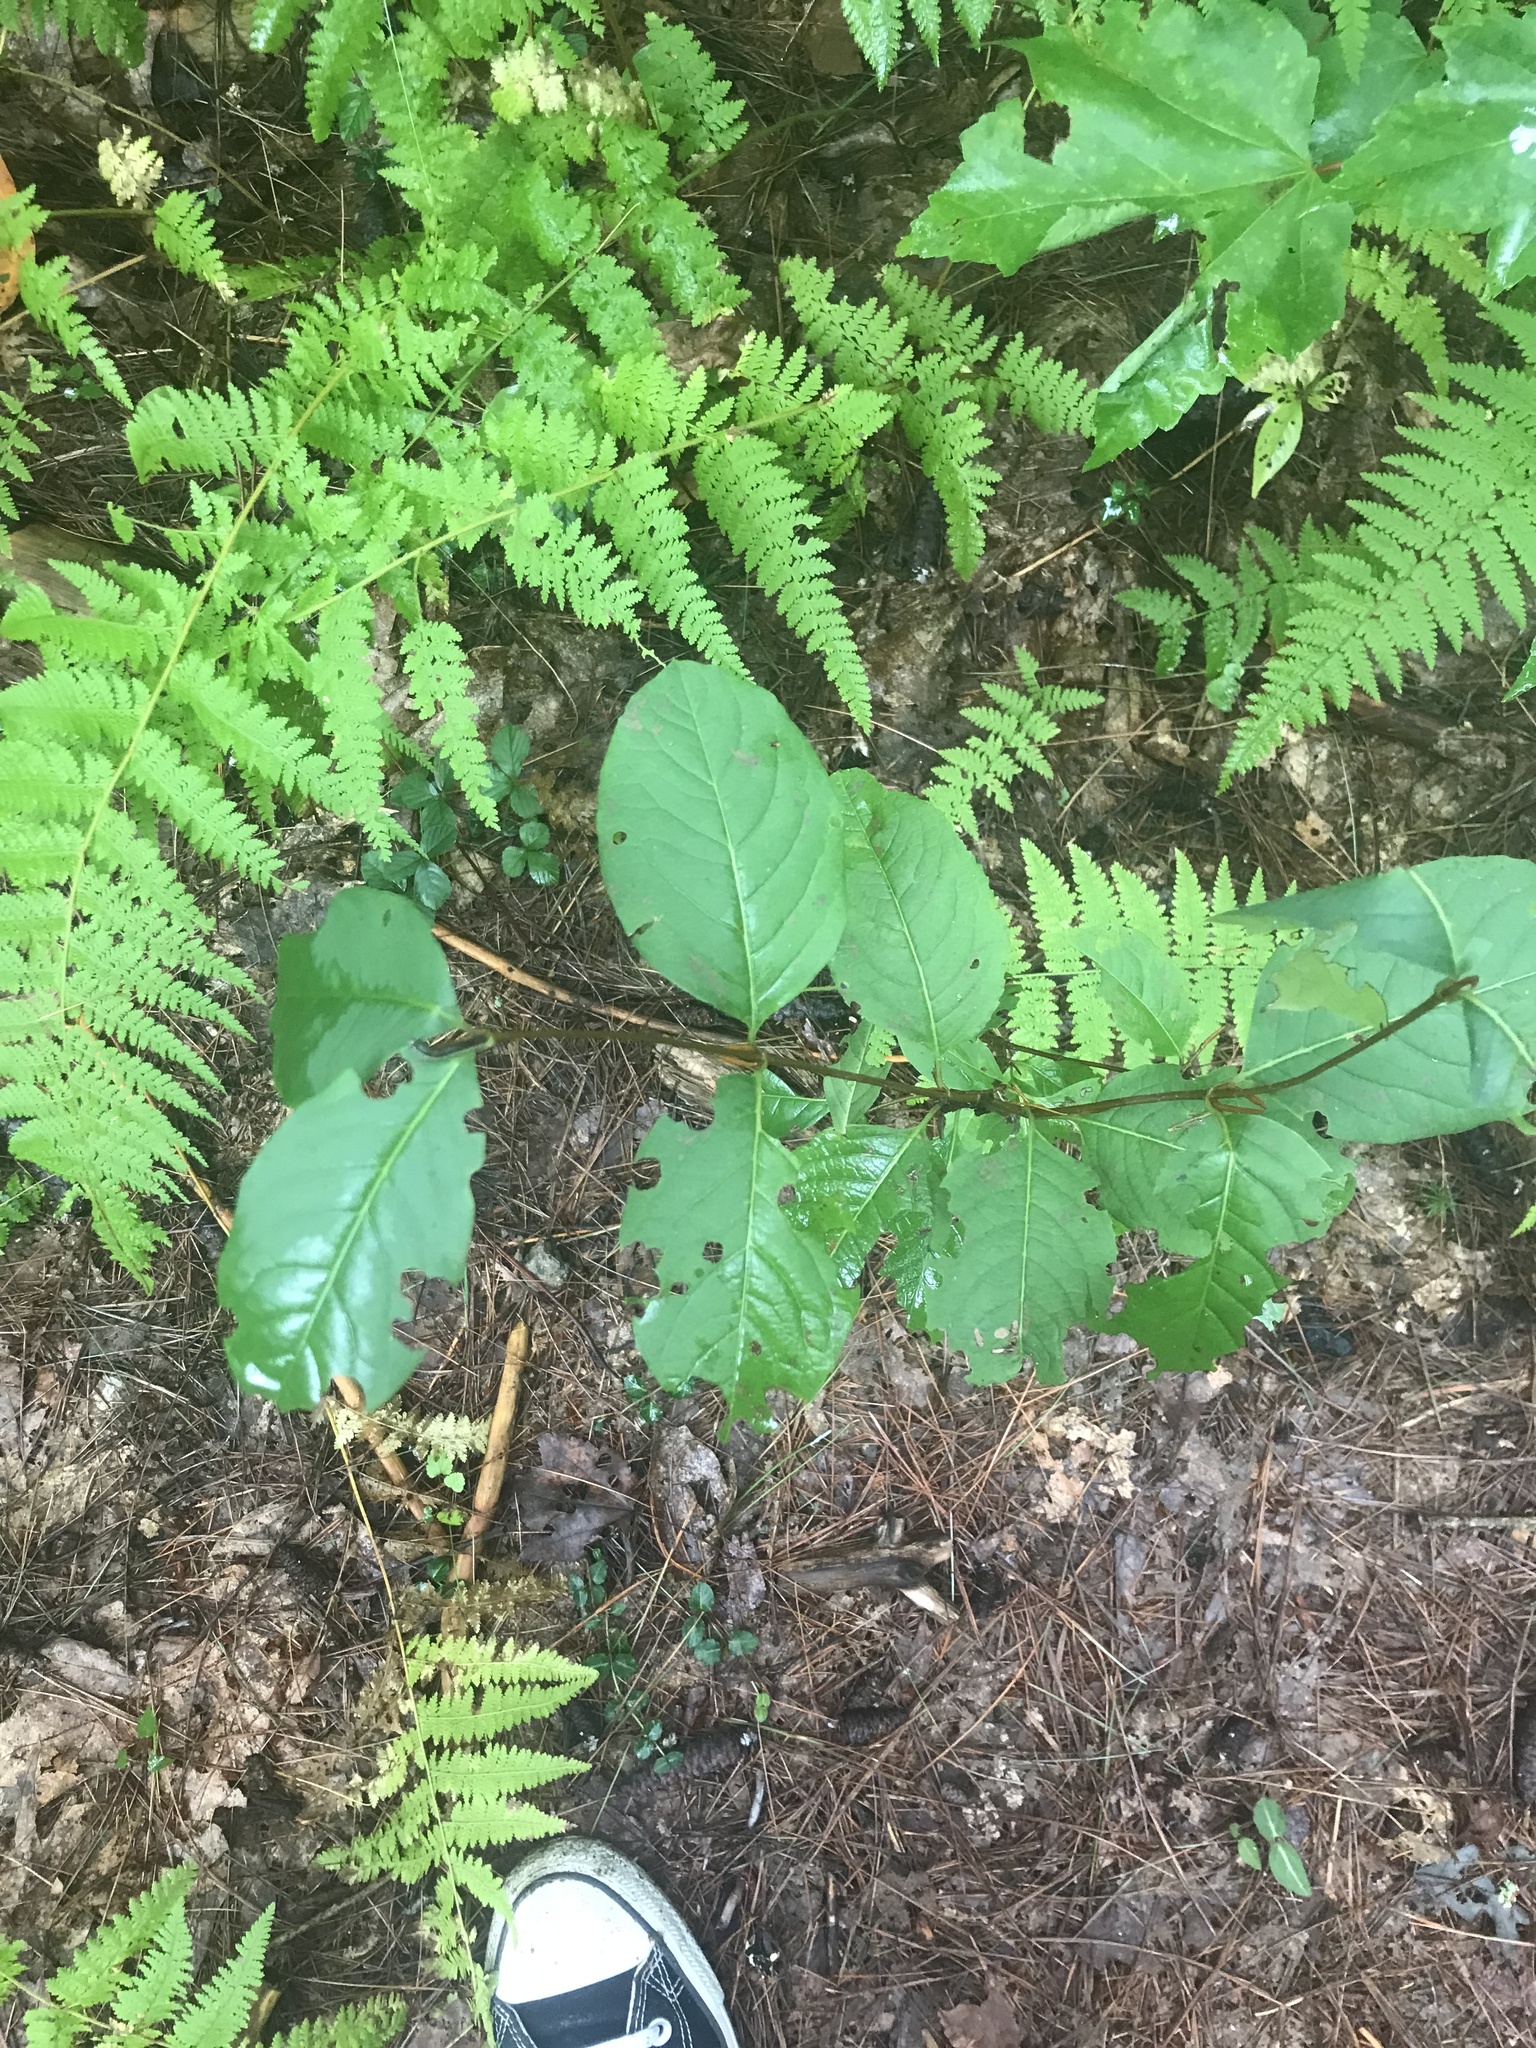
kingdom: Plantae
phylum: Tracheophyta
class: Magnoliopsida
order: Rosales
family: Rhamnaceae
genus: Frangula
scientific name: Frangula alnus
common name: Alder buckthorn
